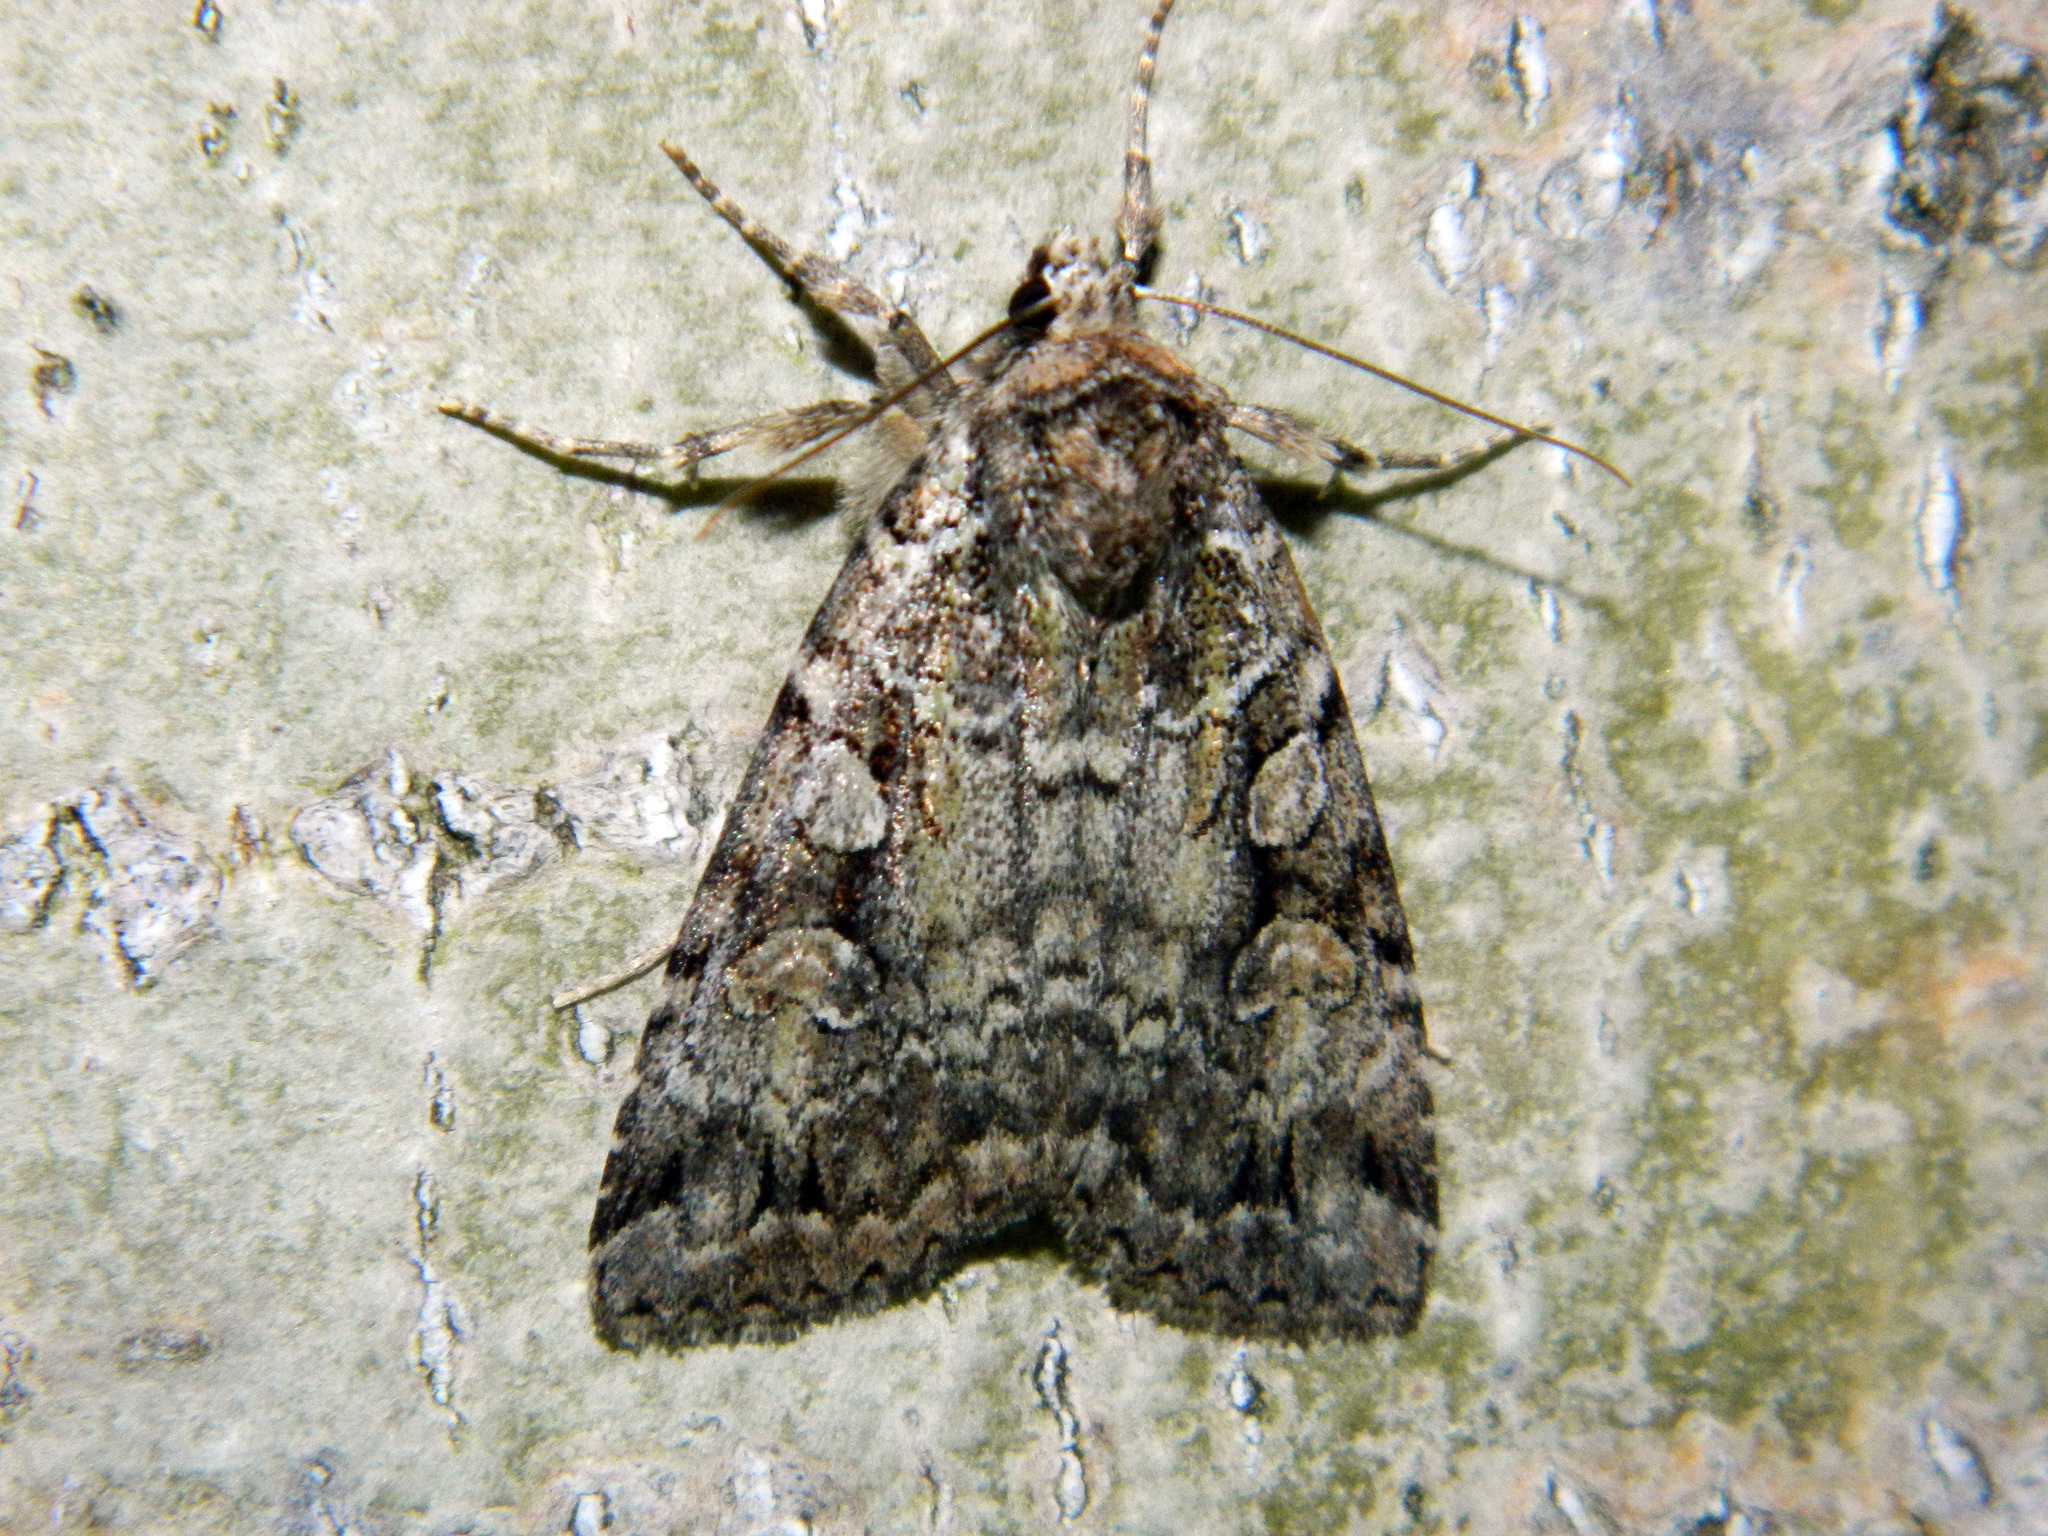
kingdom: Animalia
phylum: Arthropoda
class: Insecta
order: Lepidoptera
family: Noctuidae
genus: Anaplectoides
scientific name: Anaplectoides pressus
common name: Dappled dart
